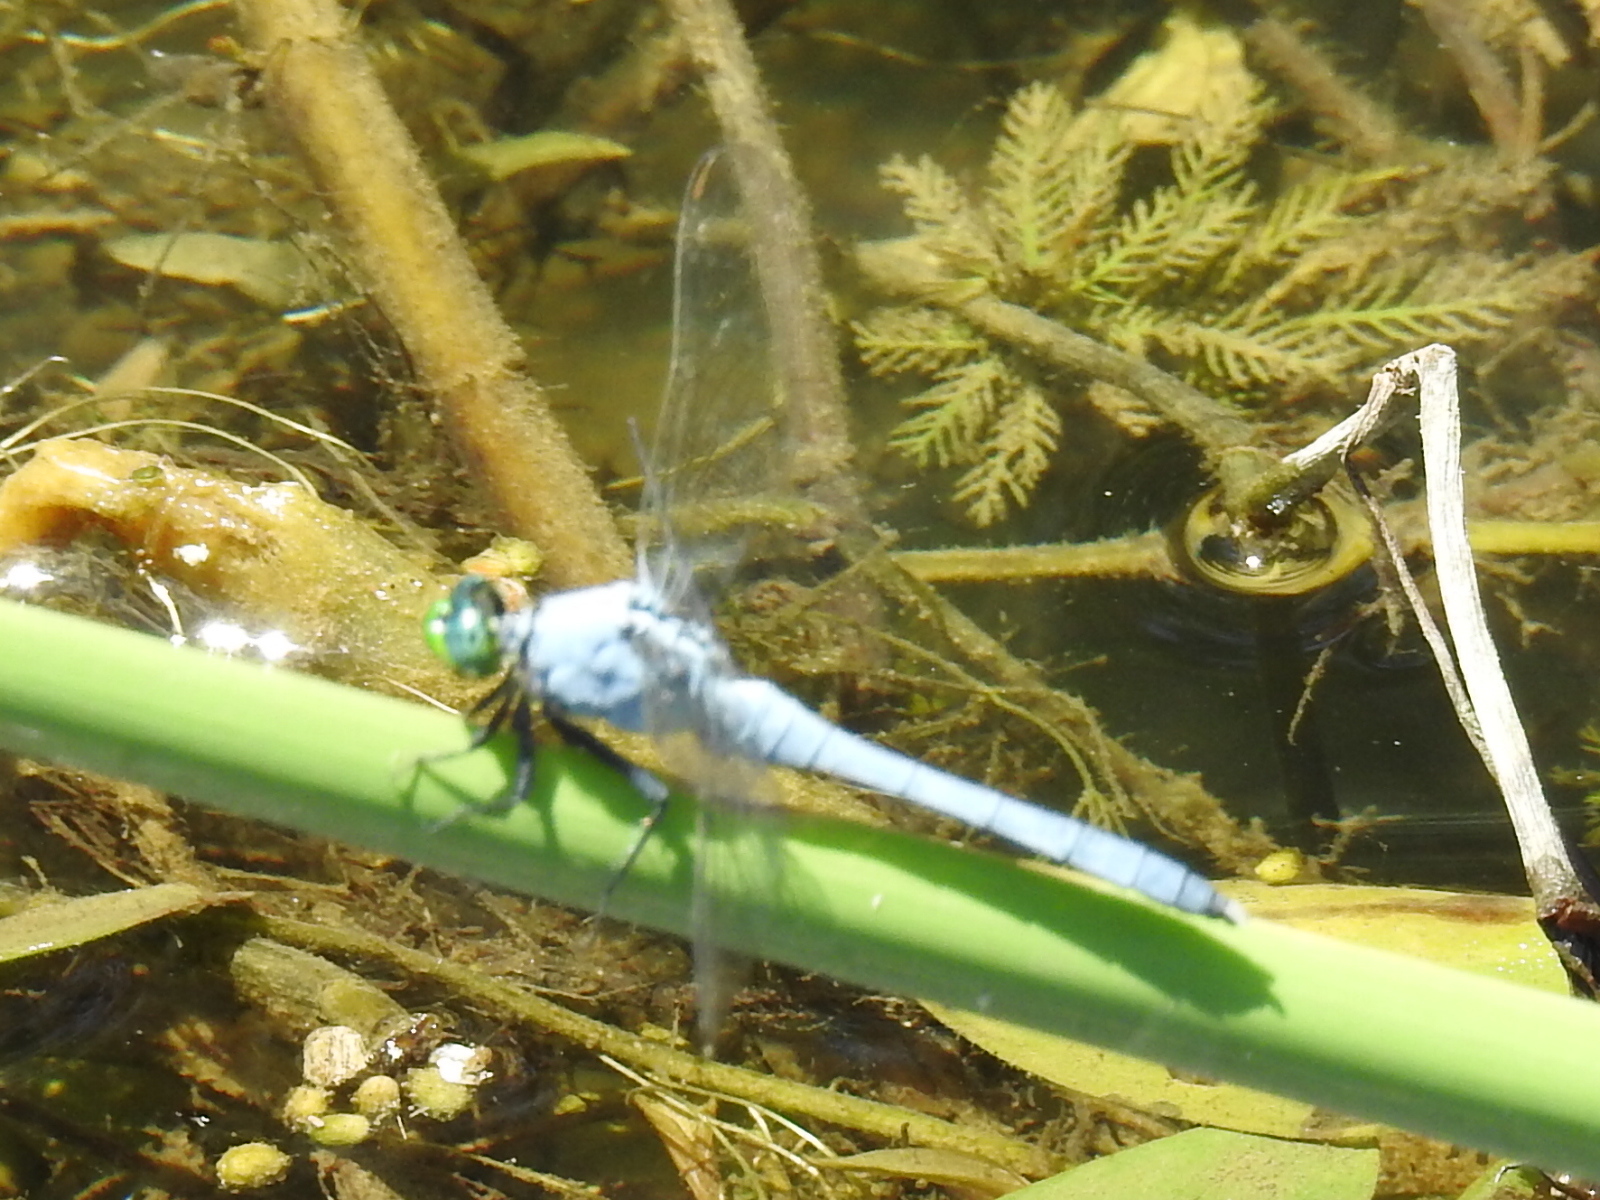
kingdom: Animalia
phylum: Arthropoda
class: Insecta
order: Odonata
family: Libellulidae
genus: Erythemis
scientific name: Erythemis simplicicollis
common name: Eastern pondhawk
